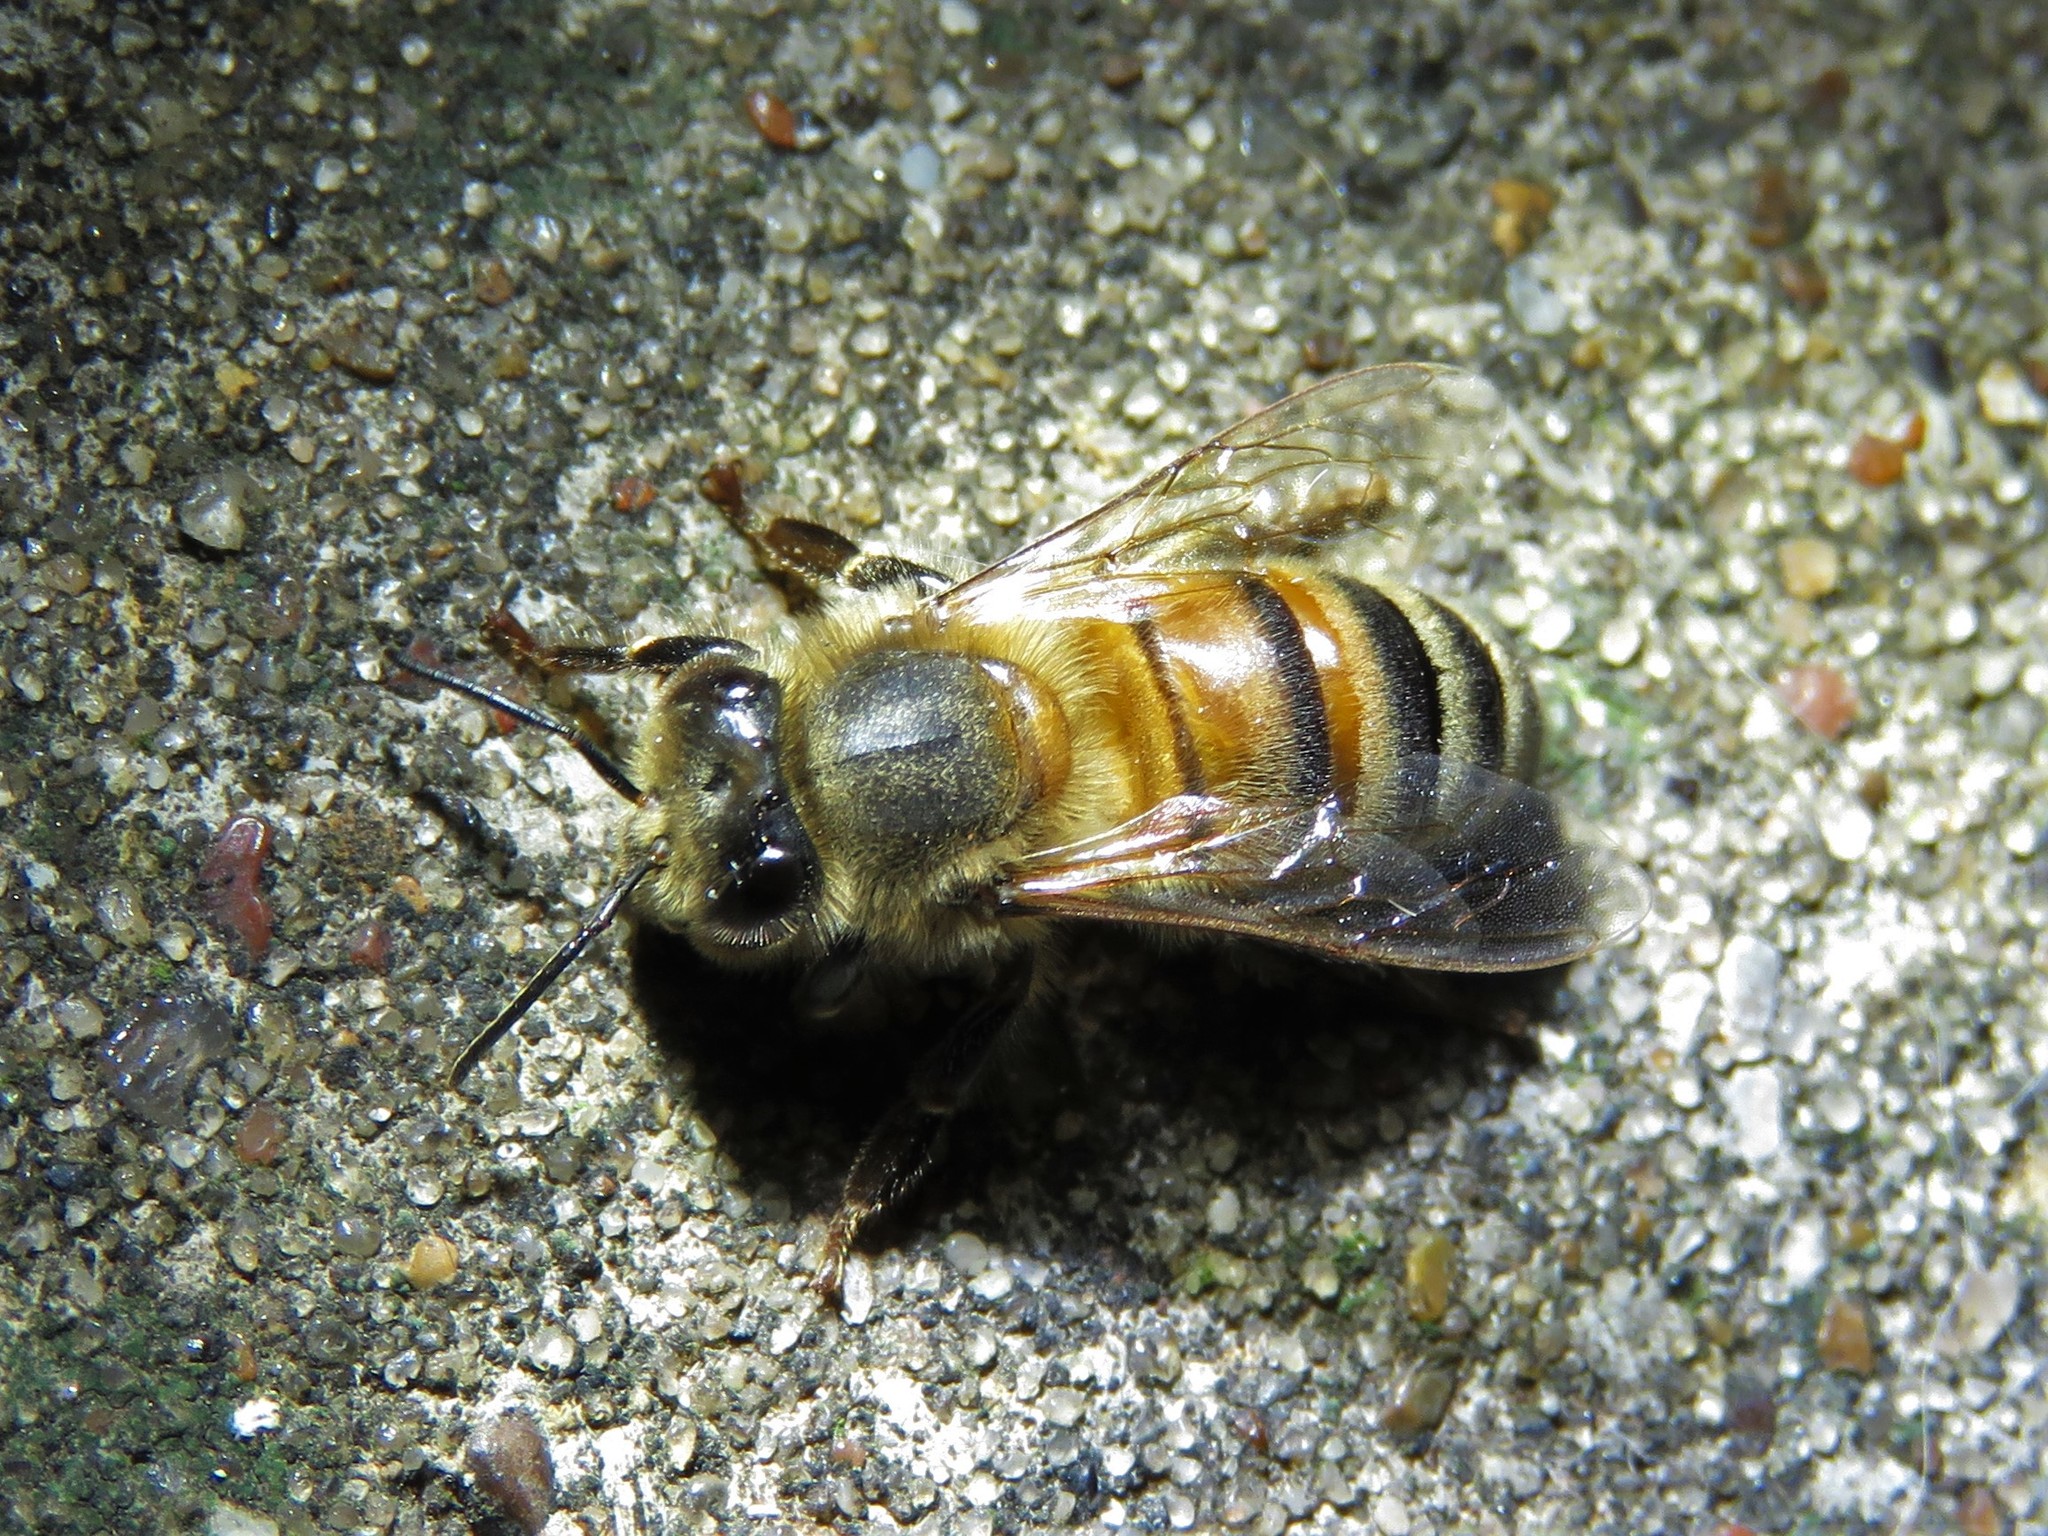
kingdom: Animalia
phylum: Arthropoda
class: Insecta
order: Hymenoptera
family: Apidae
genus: Apis
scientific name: Apis mellifera
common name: Honey bee
